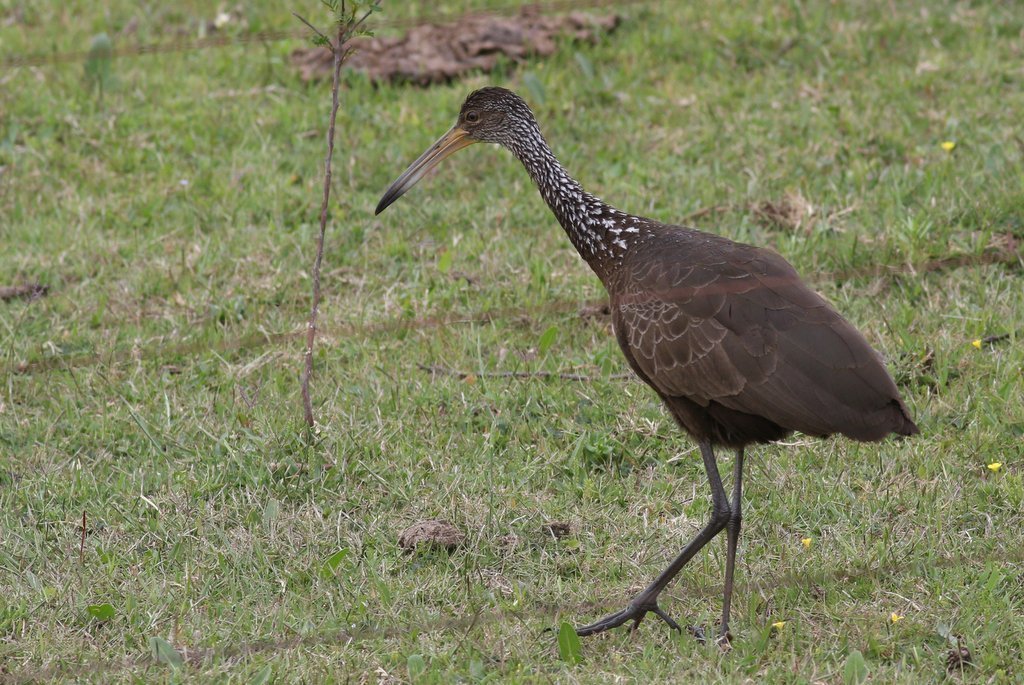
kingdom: Animalia
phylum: Chordata
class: Aves
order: Gruiformes
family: Aramidae
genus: Aramus
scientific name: Aramus guarauna
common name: Limpkin
